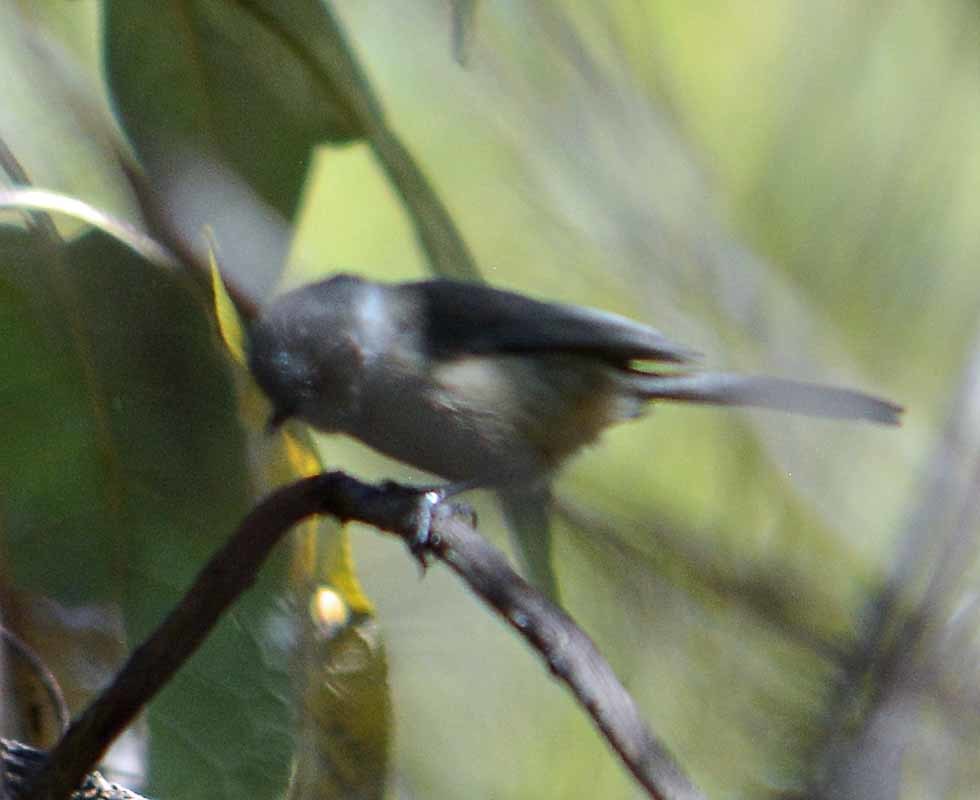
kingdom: Animalia
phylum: Chordata
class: Aves
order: Passeriformes
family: Aegithalidae
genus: Psaltriparus
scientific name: Psaltriparus minimus
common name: American bushtit
